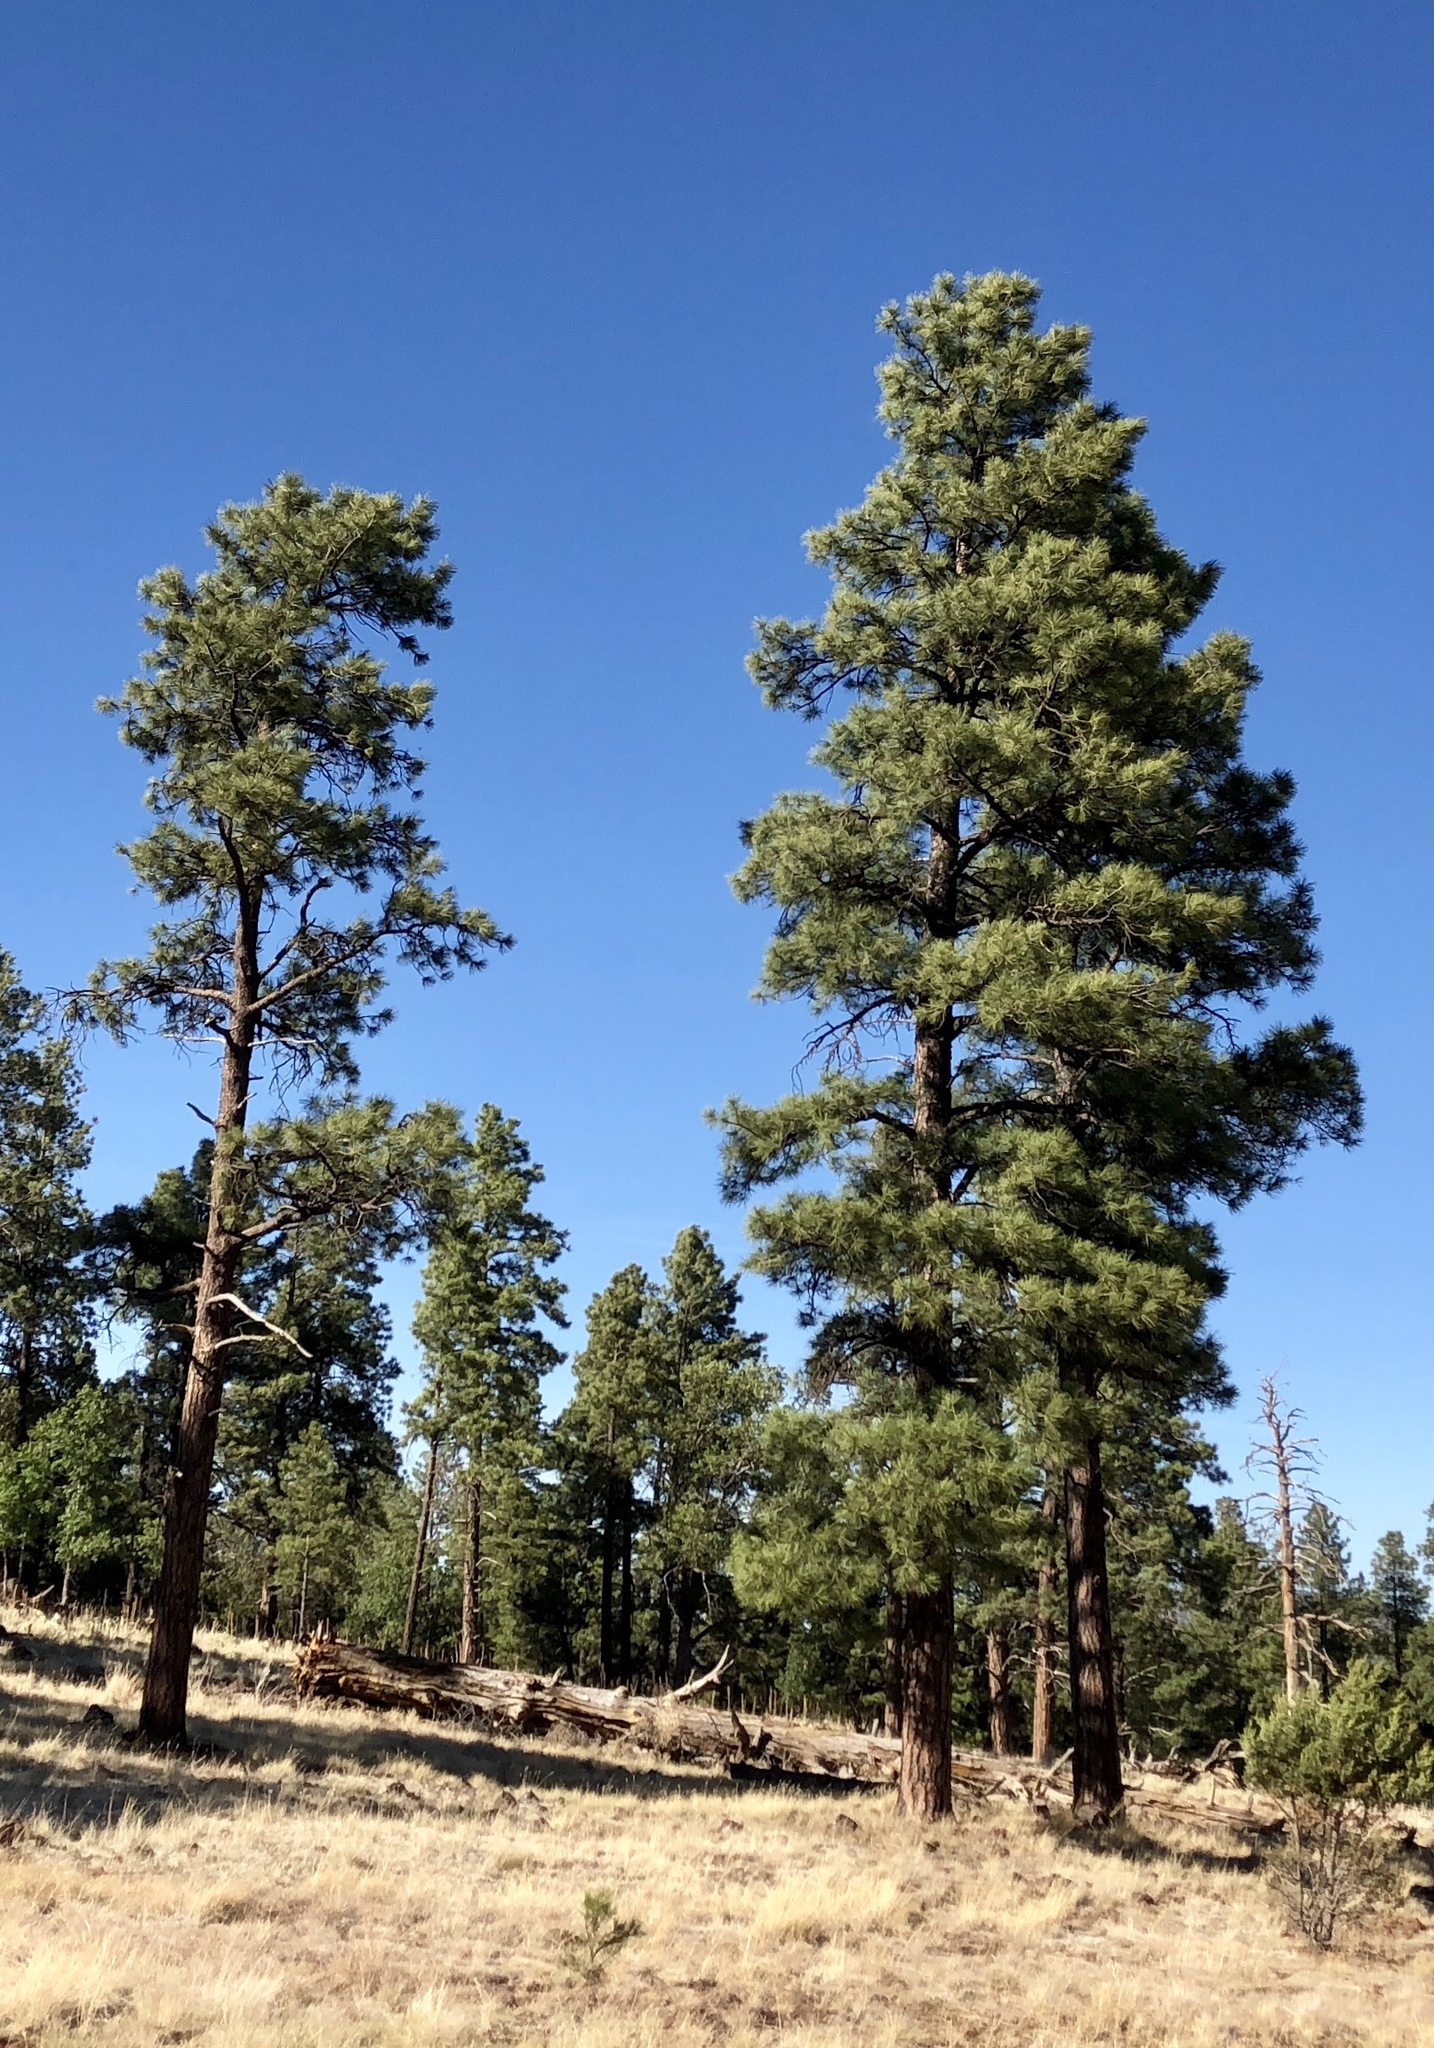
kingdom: Plantae
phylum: Tracheophyta
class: Pinopsida
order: Pinales
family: Pinaceae
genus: Pinus
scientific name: Pinus ponderosa
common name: Western yellow-pine
